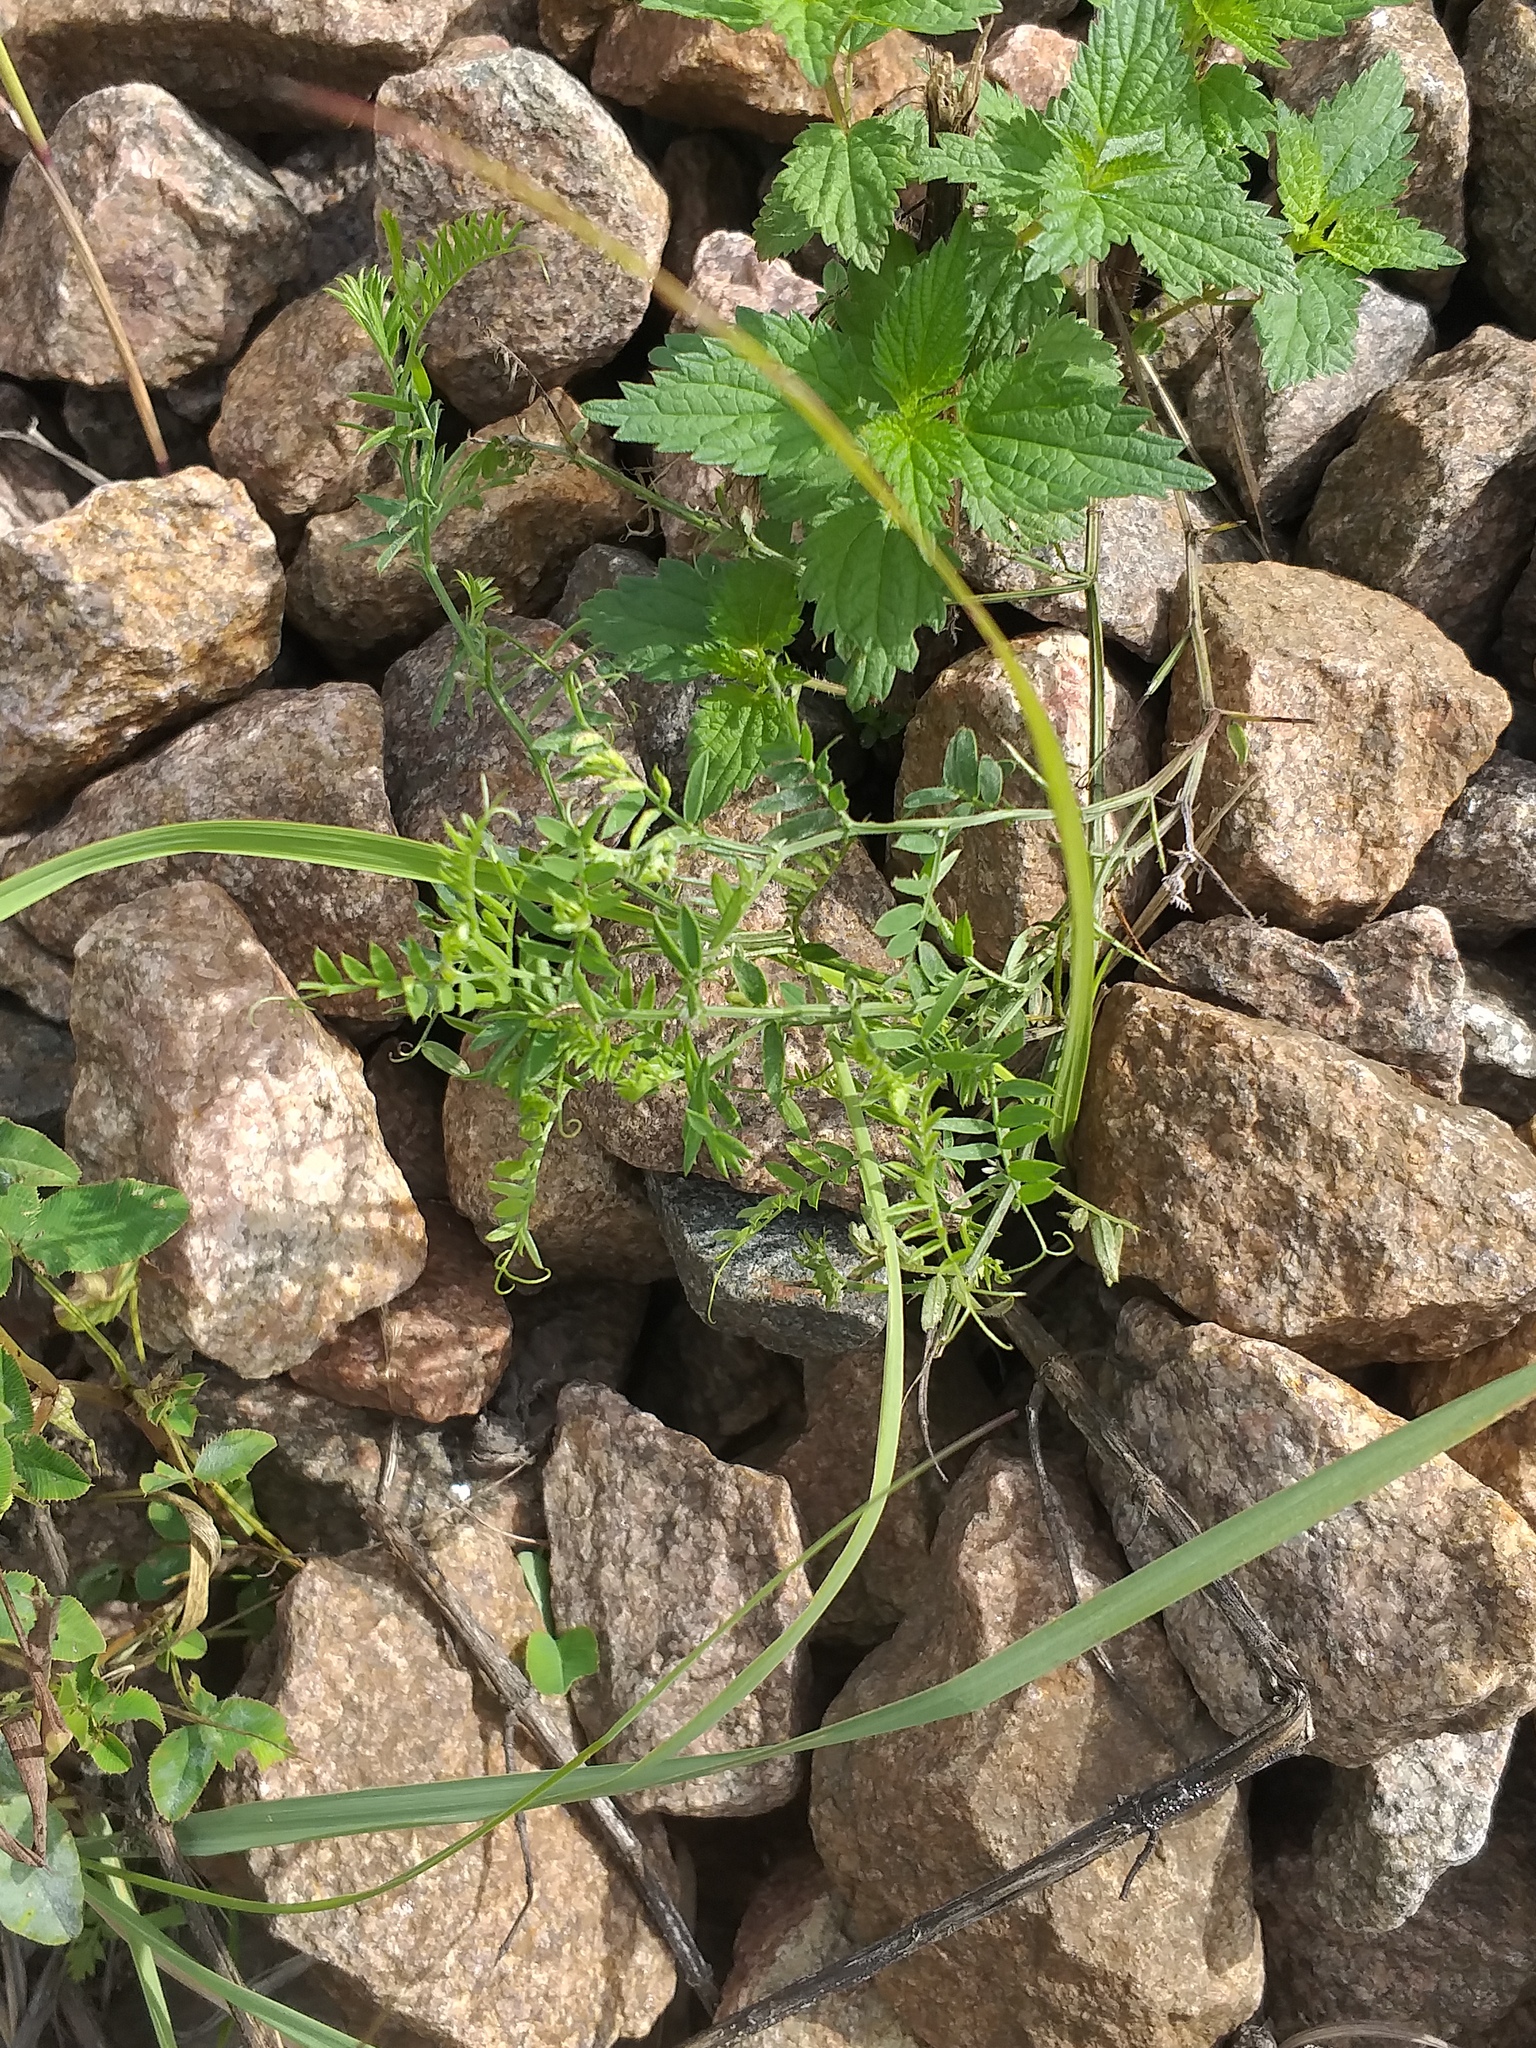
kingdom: Plantae
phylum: Tracheophyta
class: Magnoliopsida
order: Fabales
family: Fabaceae
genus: Vicia
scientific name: Vicia cracca
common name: Bird vetch
